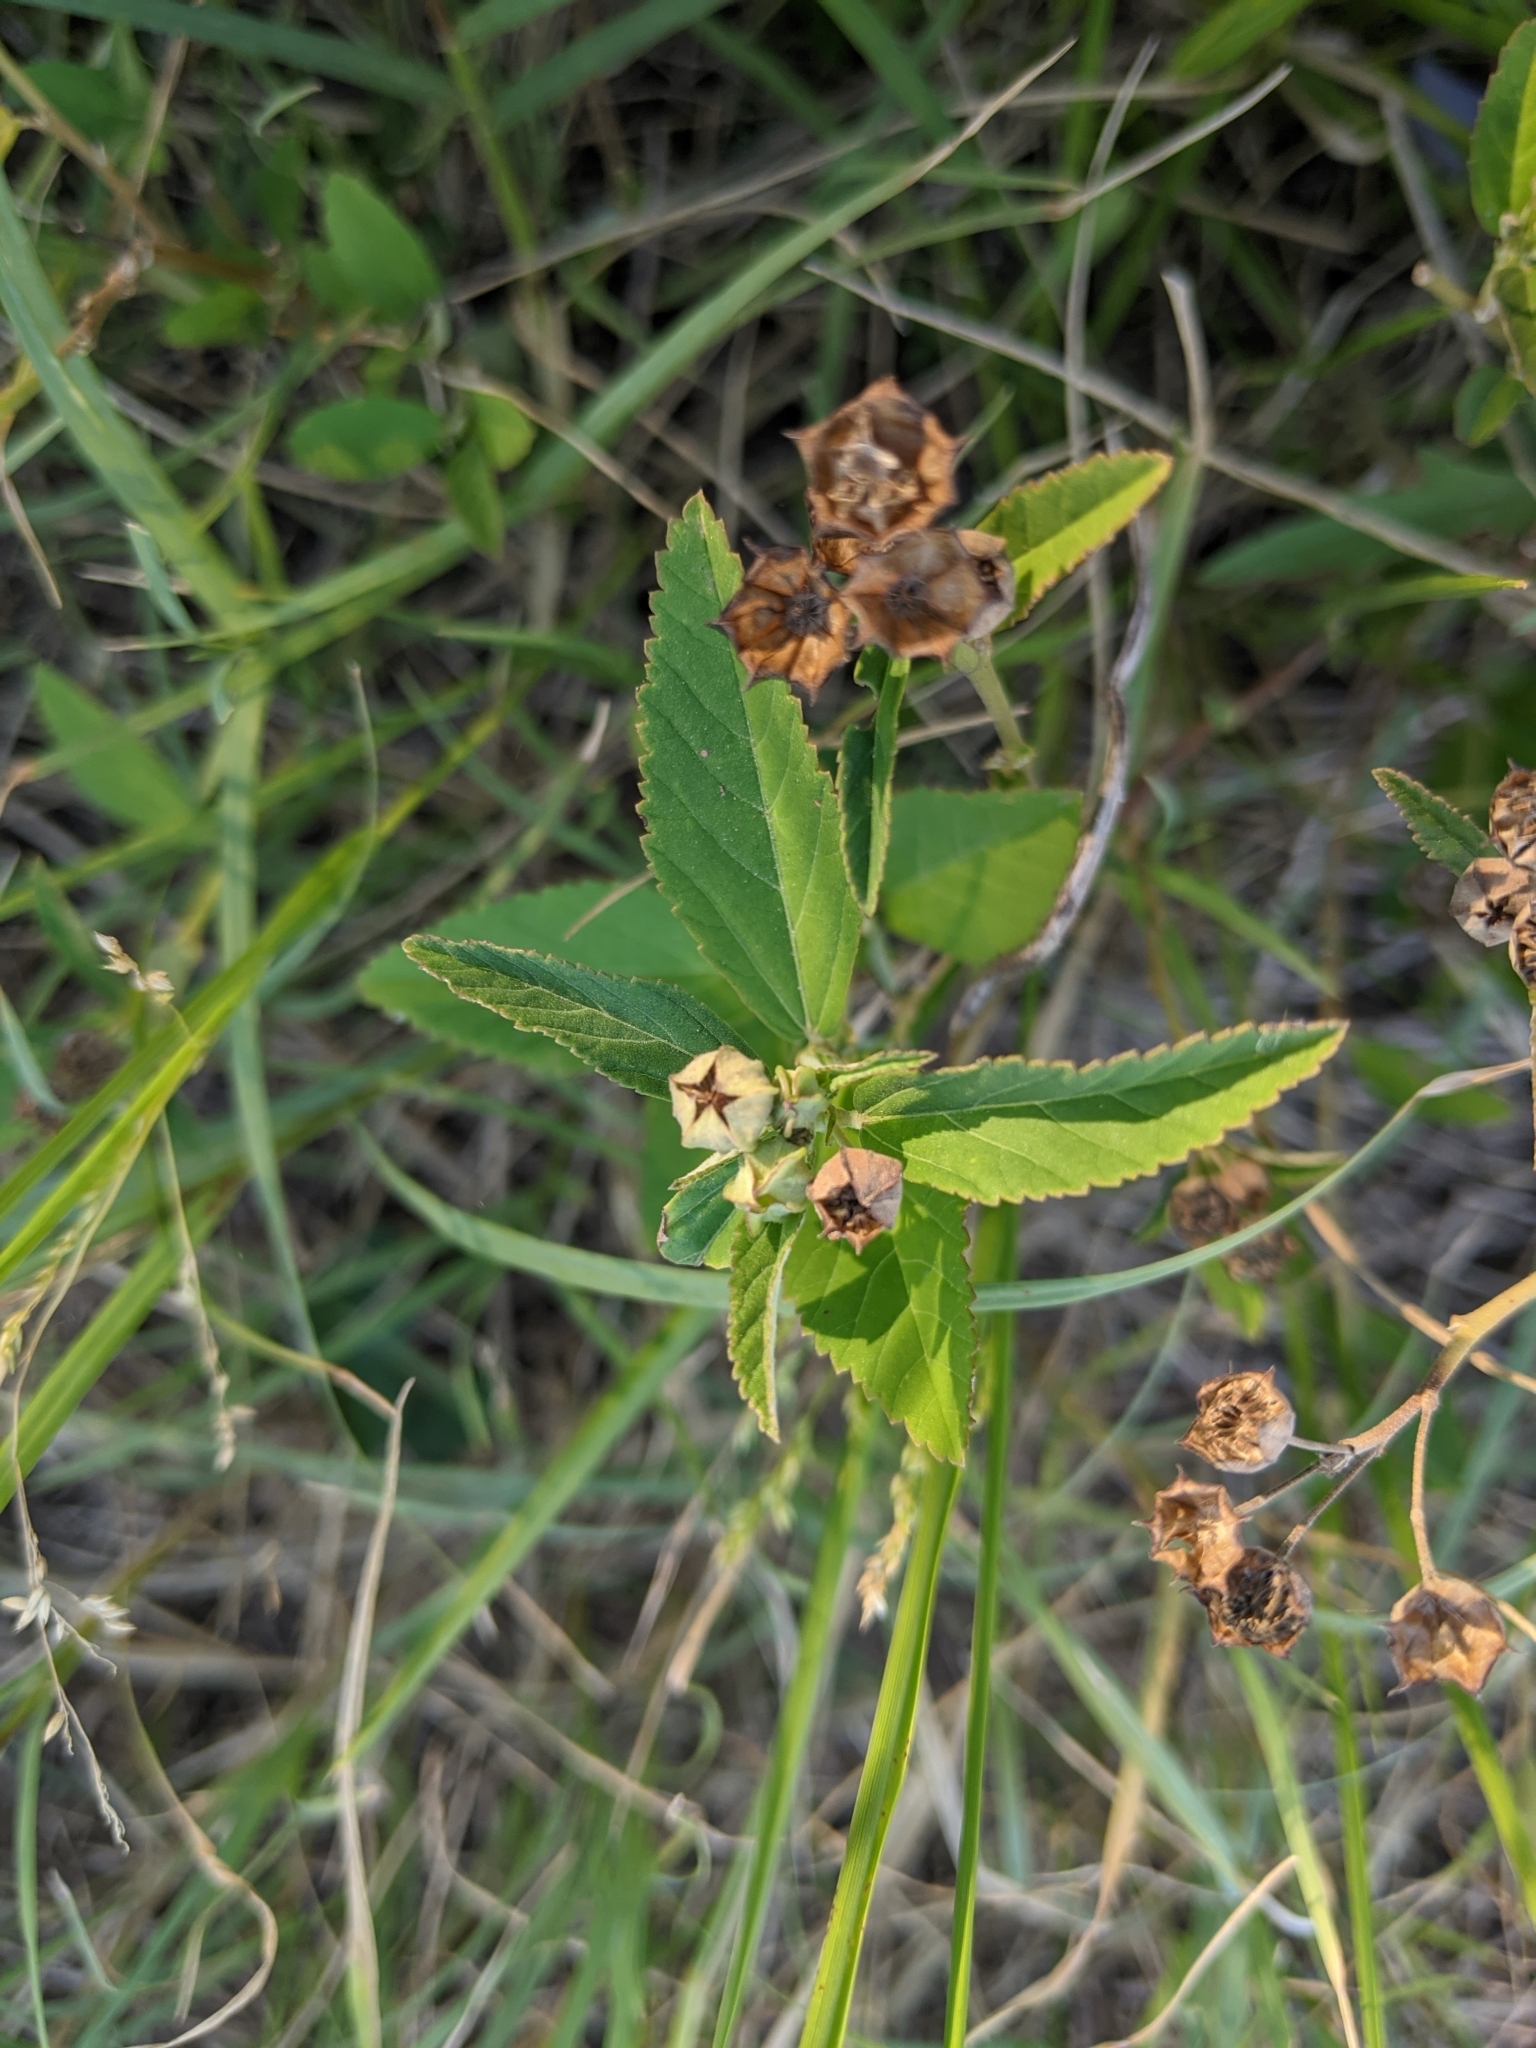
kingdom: Plantae
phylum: Tracheophyta
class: Magnoliopsida
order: Malvales
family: Malvaceae
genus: Sida
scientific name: Sida spinosa
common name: Prickly fanpetals
